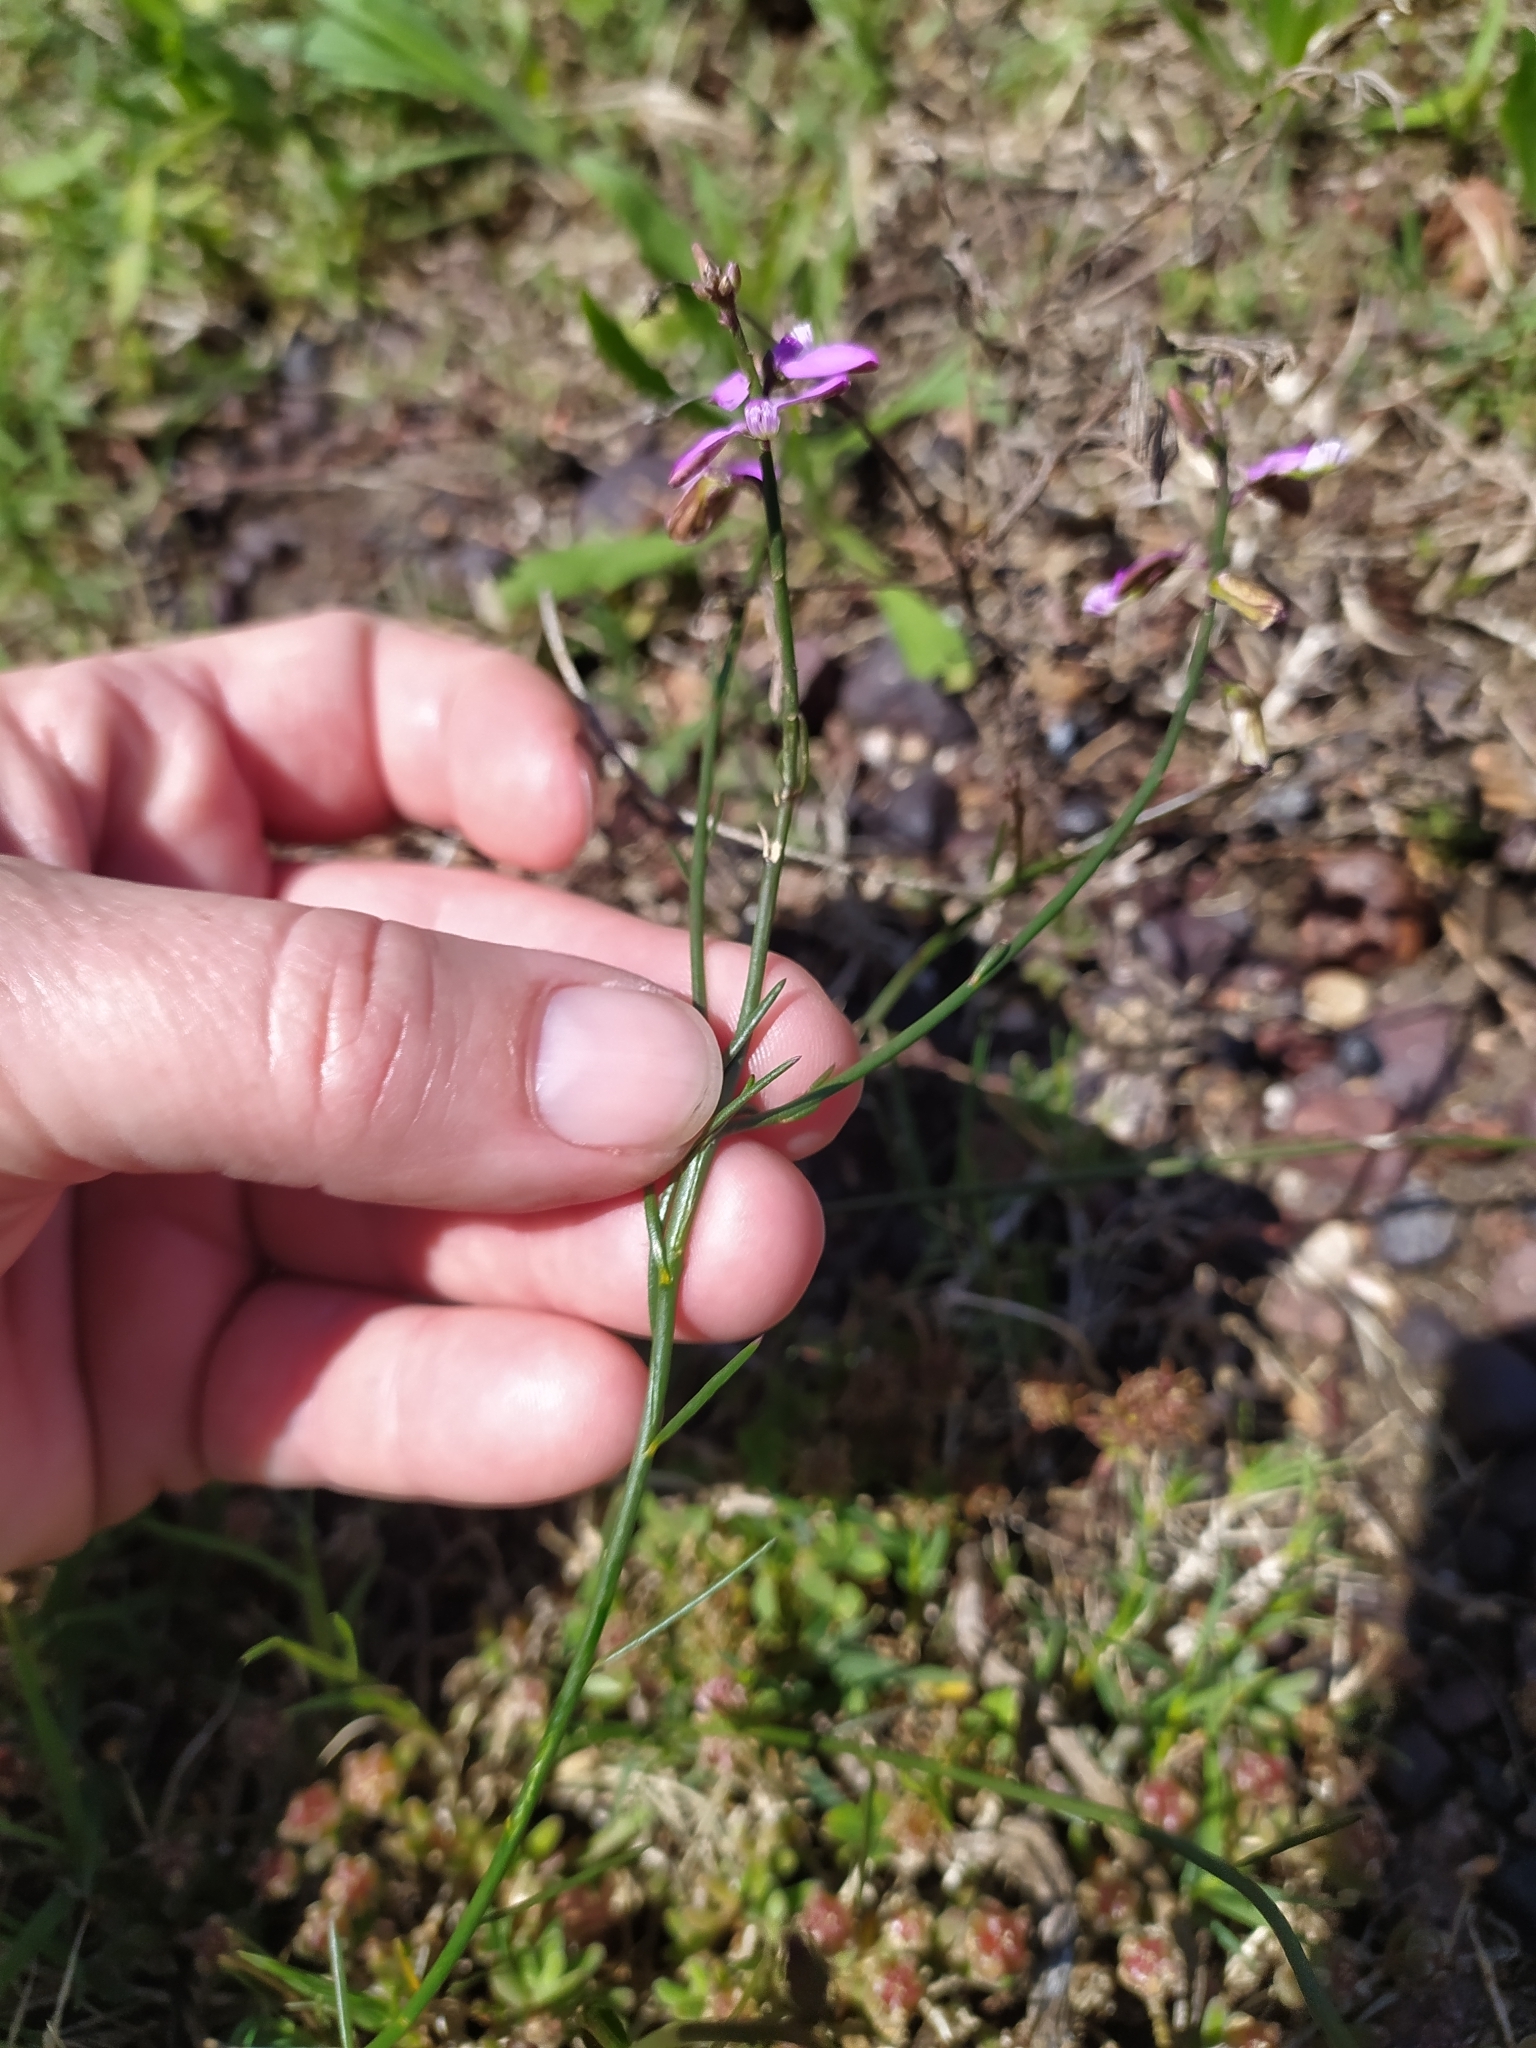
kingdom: Plantae
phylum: Tracheophyta
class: Magnoliopsida
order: Fabales
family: Polygalaceae
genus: Polygala
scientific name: Polygala garcini
